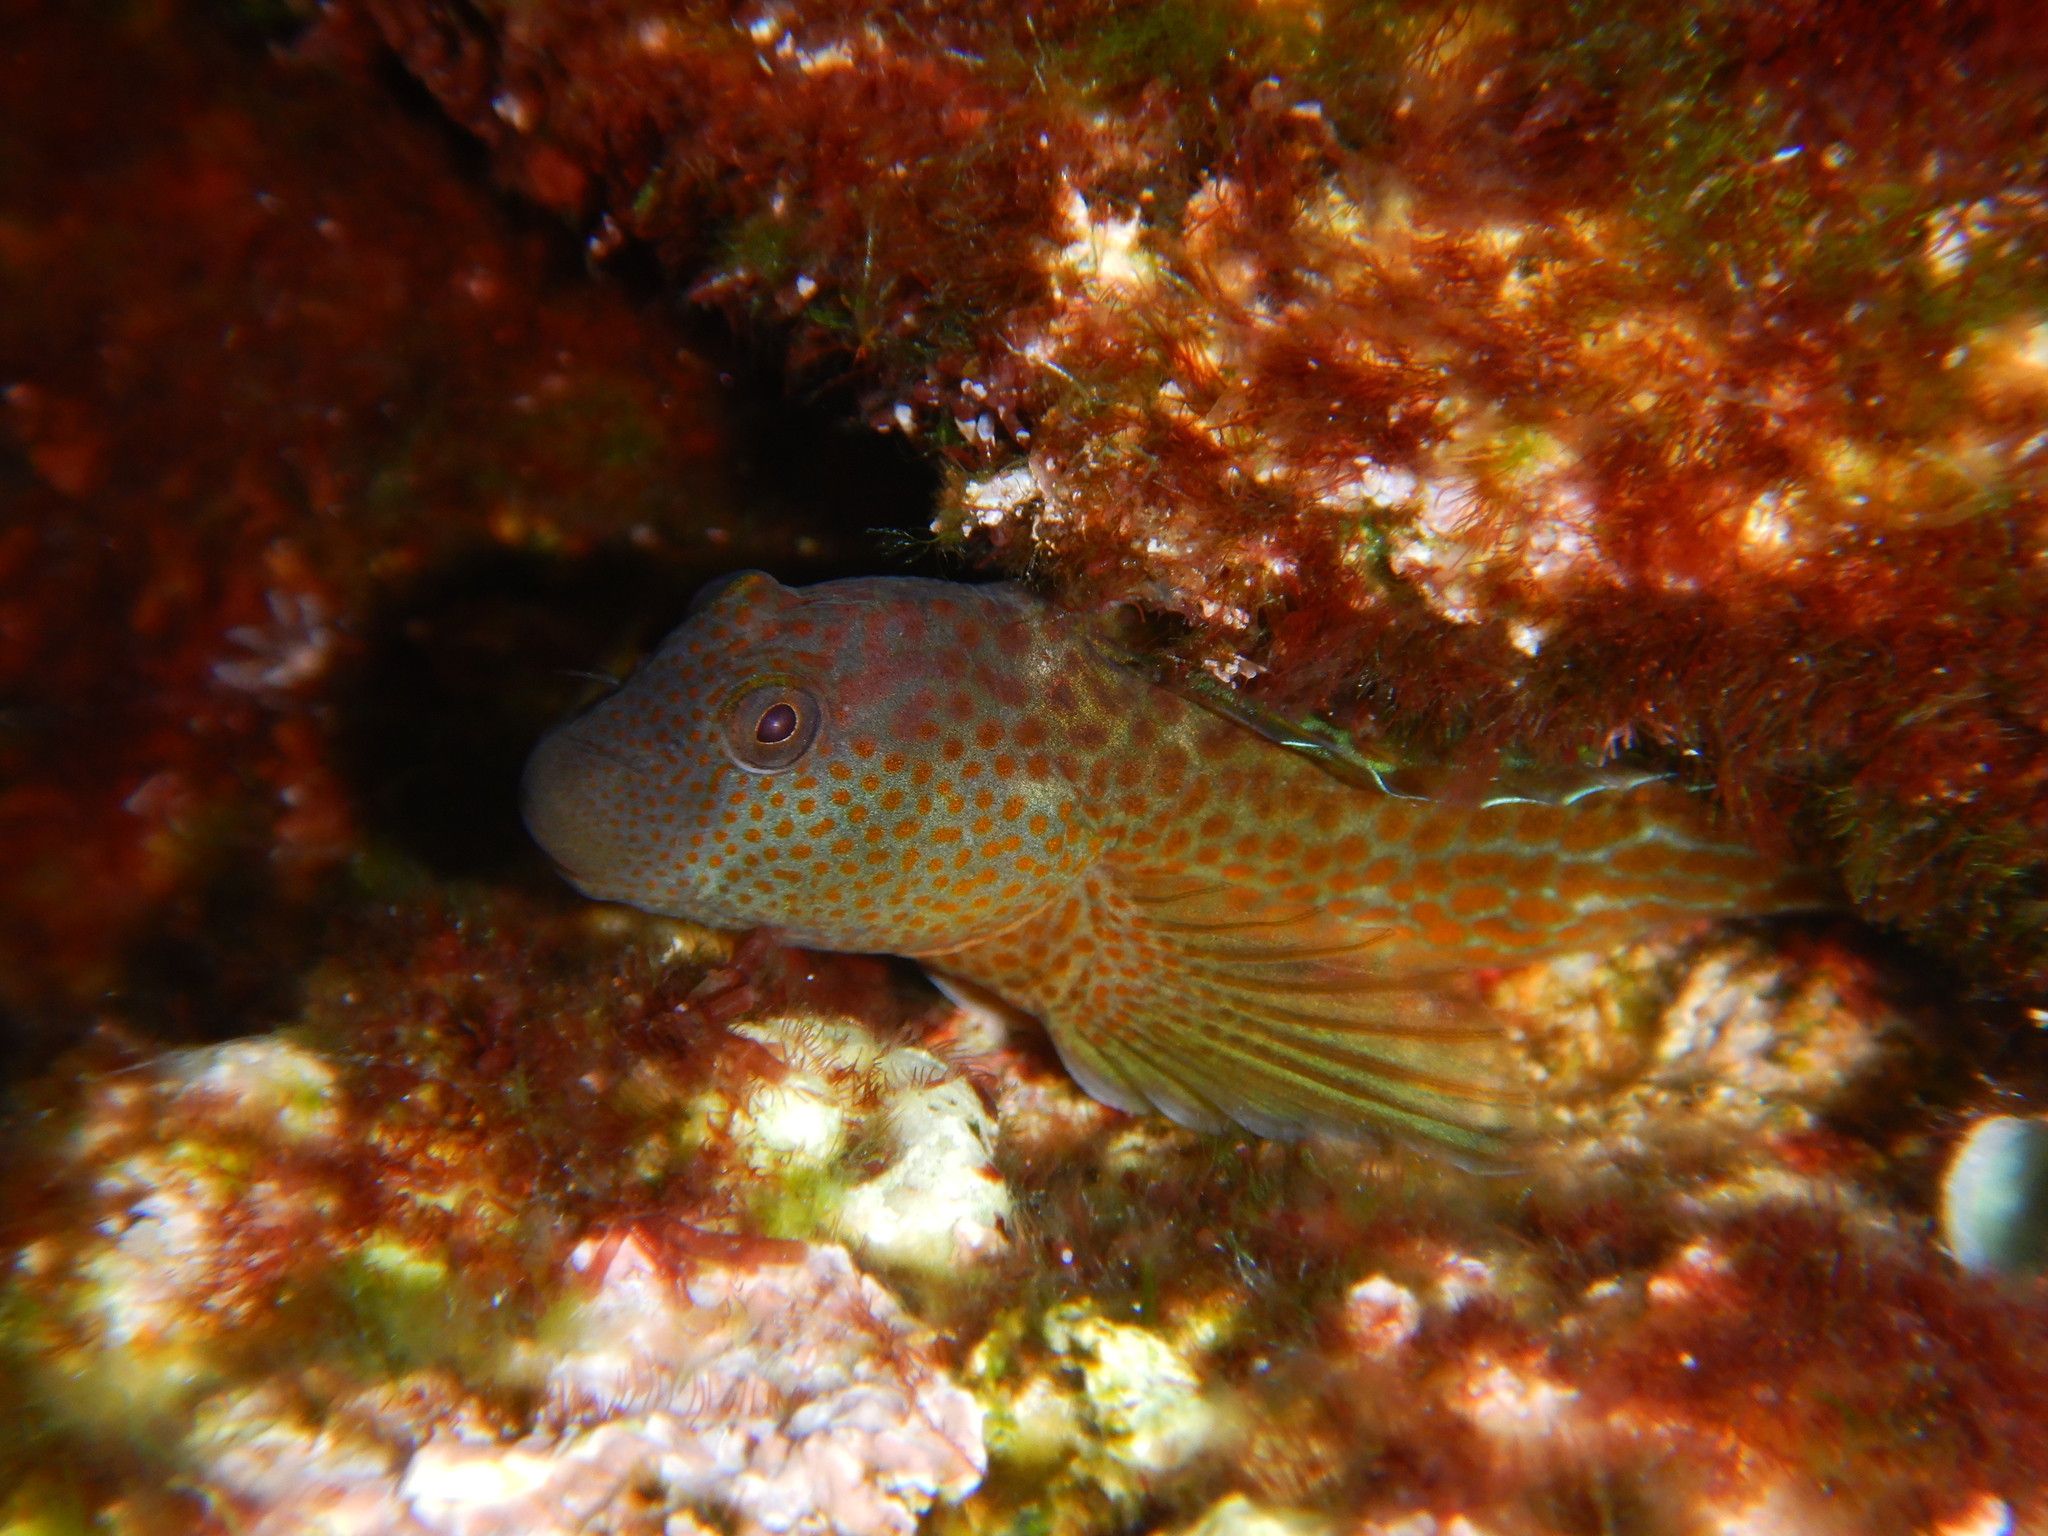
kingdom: Animalia
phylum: Chordata
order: Perciformes
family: Blenniidae
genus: Microlipophrys
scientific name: Microlipophrys canevae
